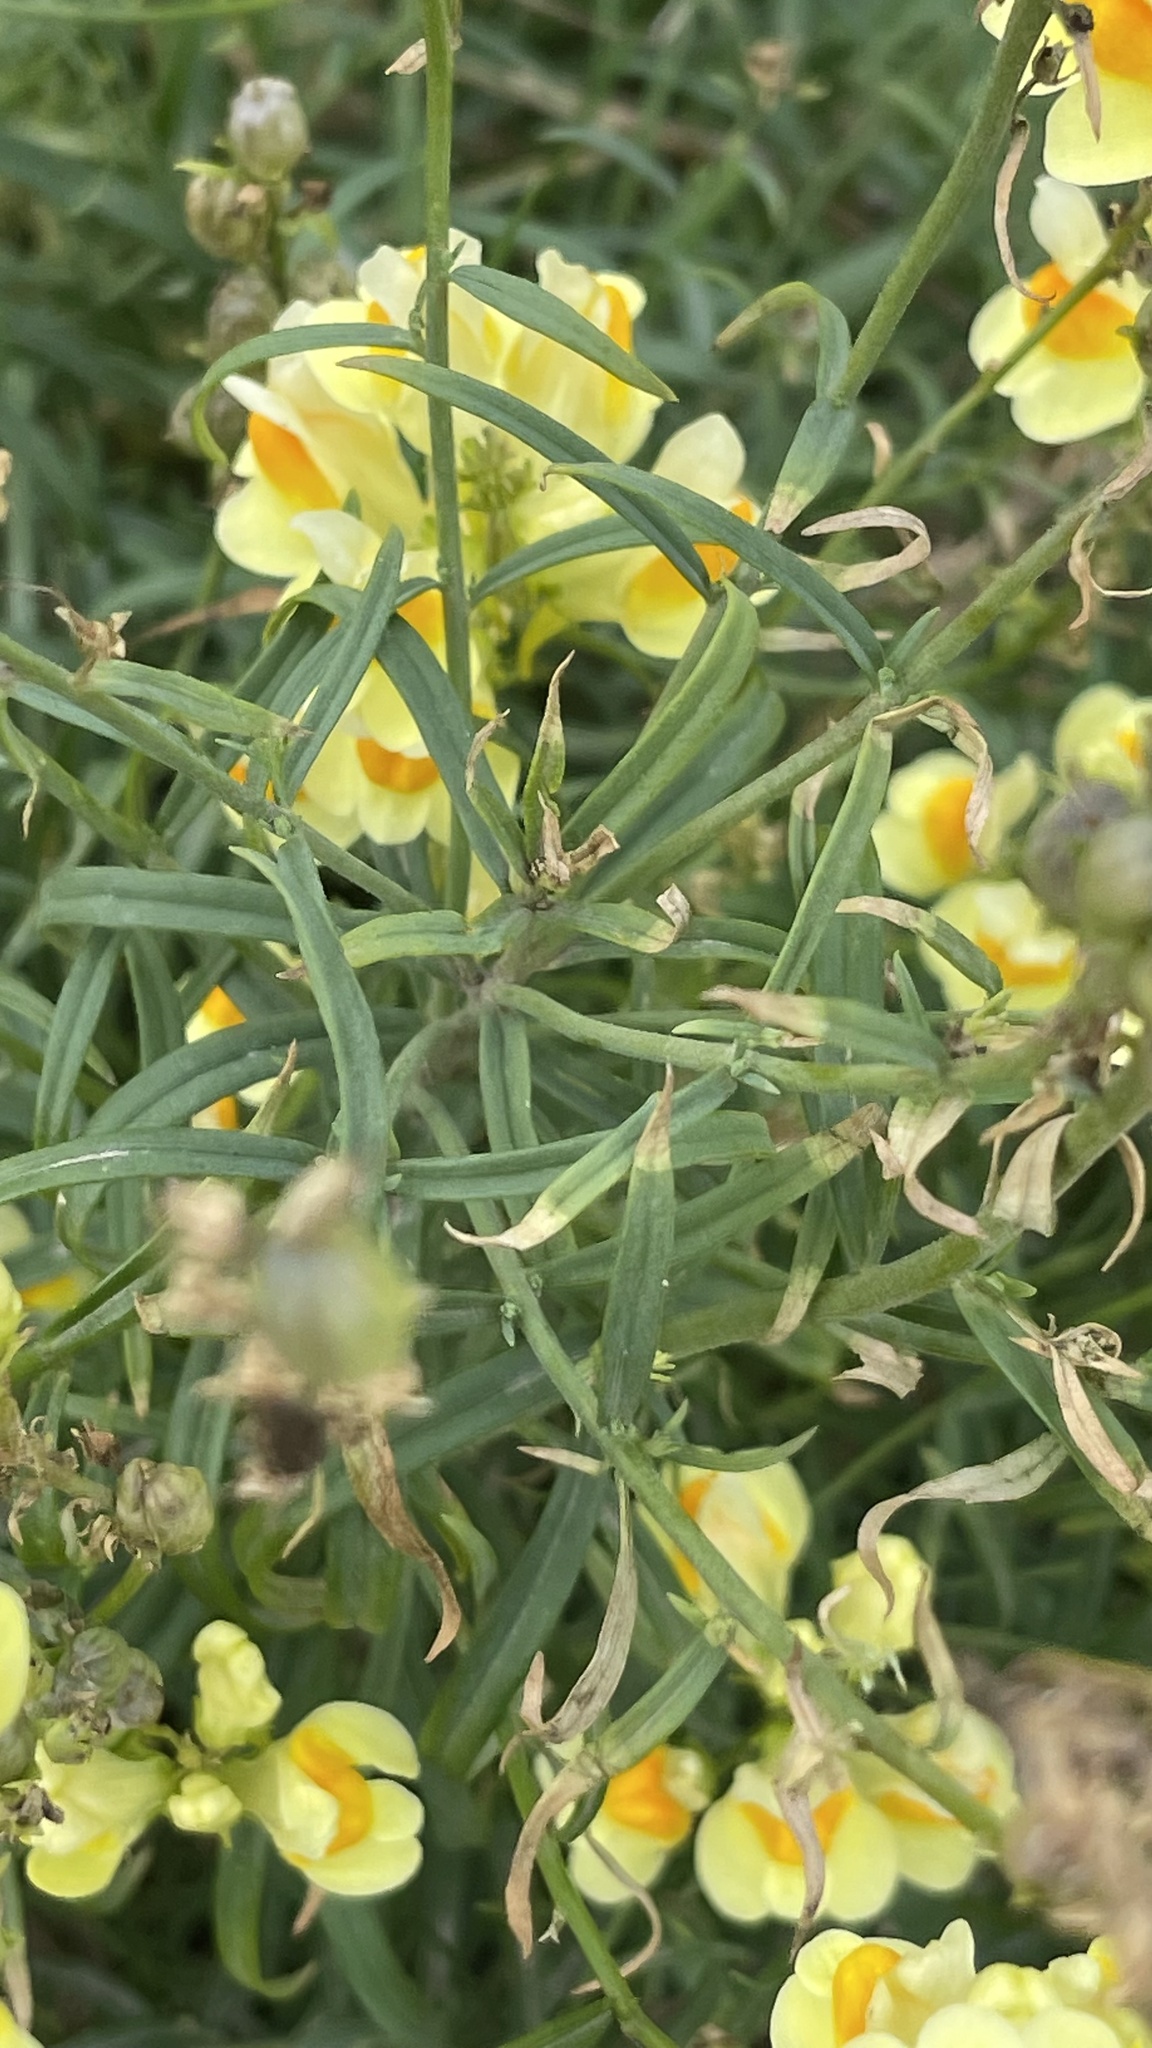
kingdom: Plantae
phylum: Tracheophyta
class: Magnoliopsida
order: Lamiales
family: Plantaginaceae
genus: Linaria
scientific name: Linaria vulgaris
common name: Butter and eggs
